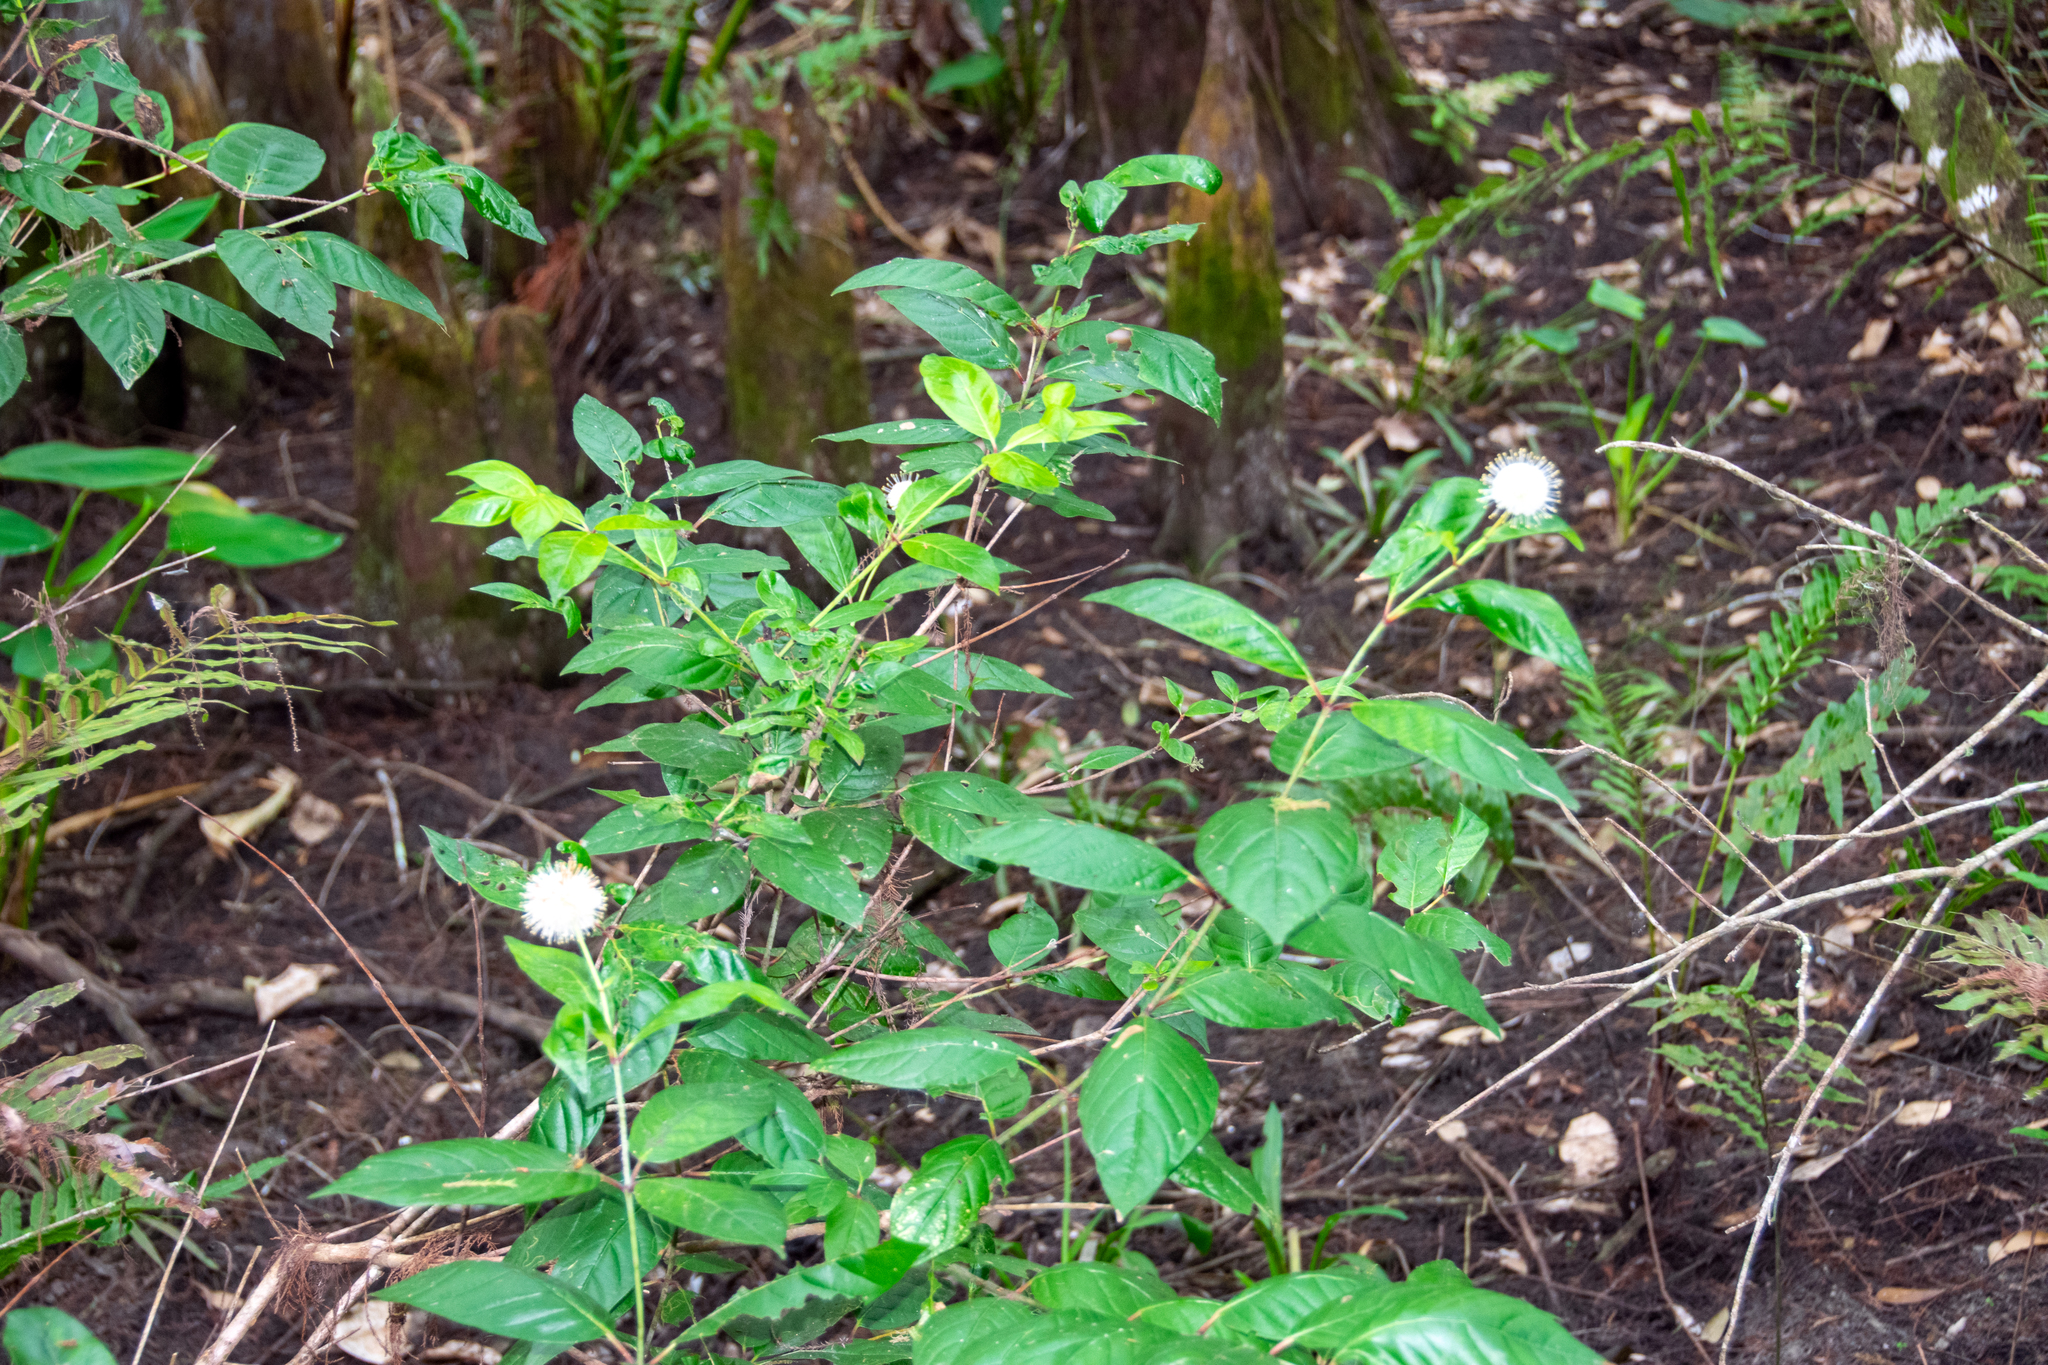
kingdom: Plantae
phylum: Tracheophyta
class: Magnoliopsida
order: Gentianales
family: Rubiaceae
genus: Cephalanthus
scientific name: Cephalanthus occidentalis
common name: Button-willow
